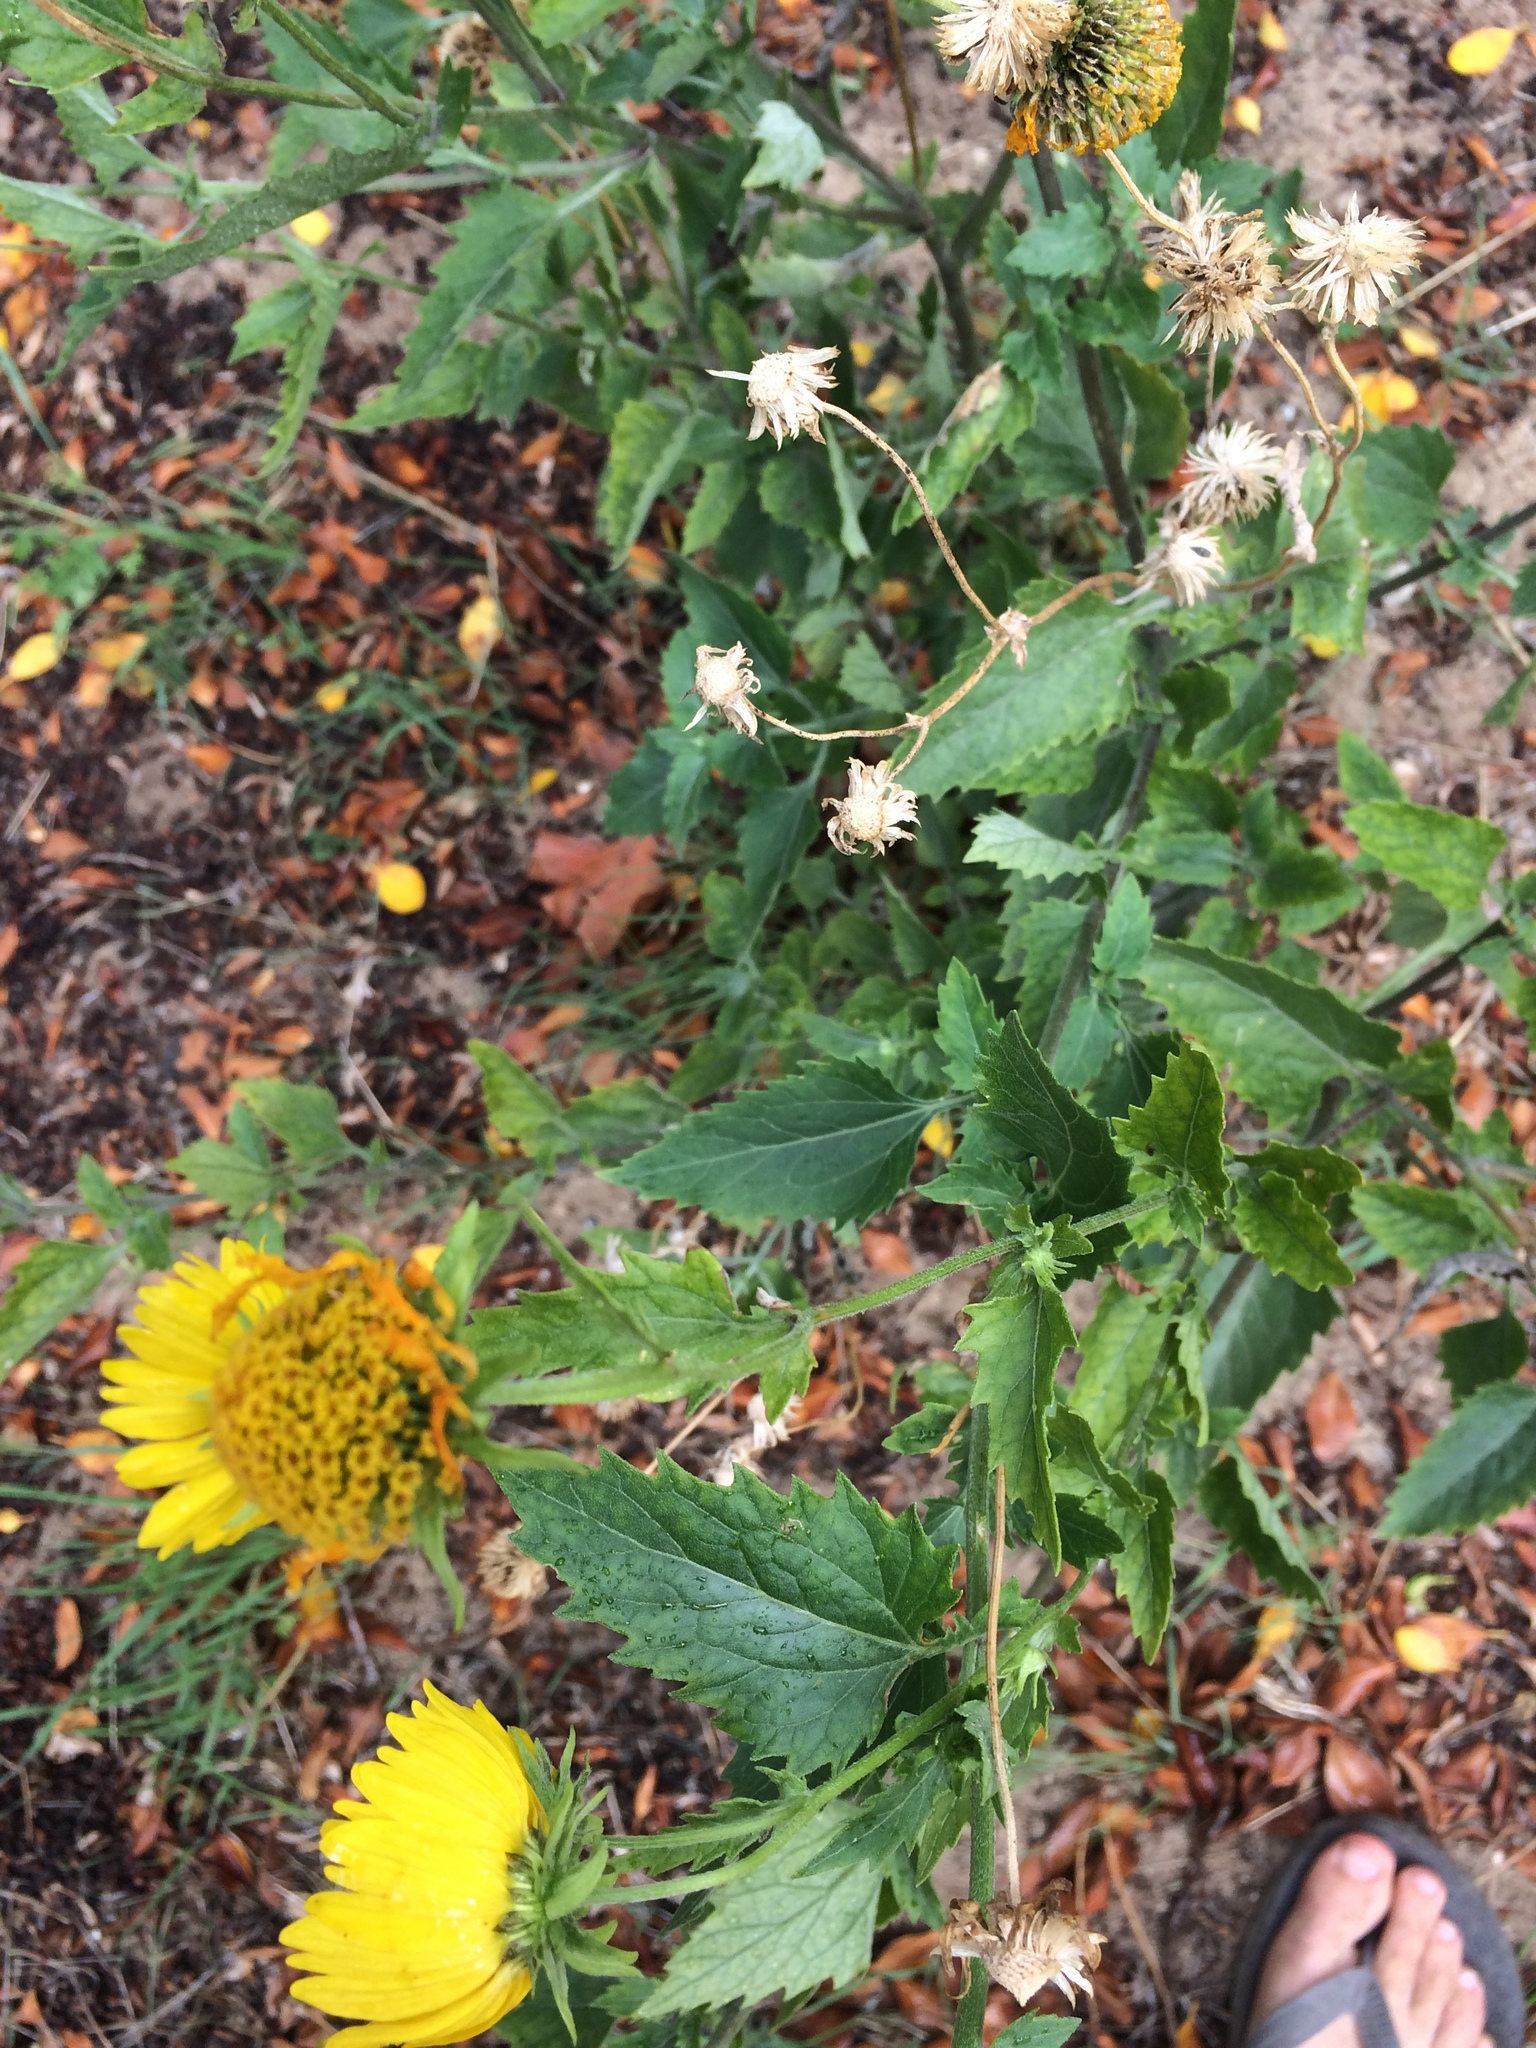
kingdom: Plantae
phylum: Tracheophyta
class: Magnoliopsida
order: Asterales
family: Asteraceae
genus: Verbesina
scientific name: Verbesina encelioides
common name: Golden crownbeard
